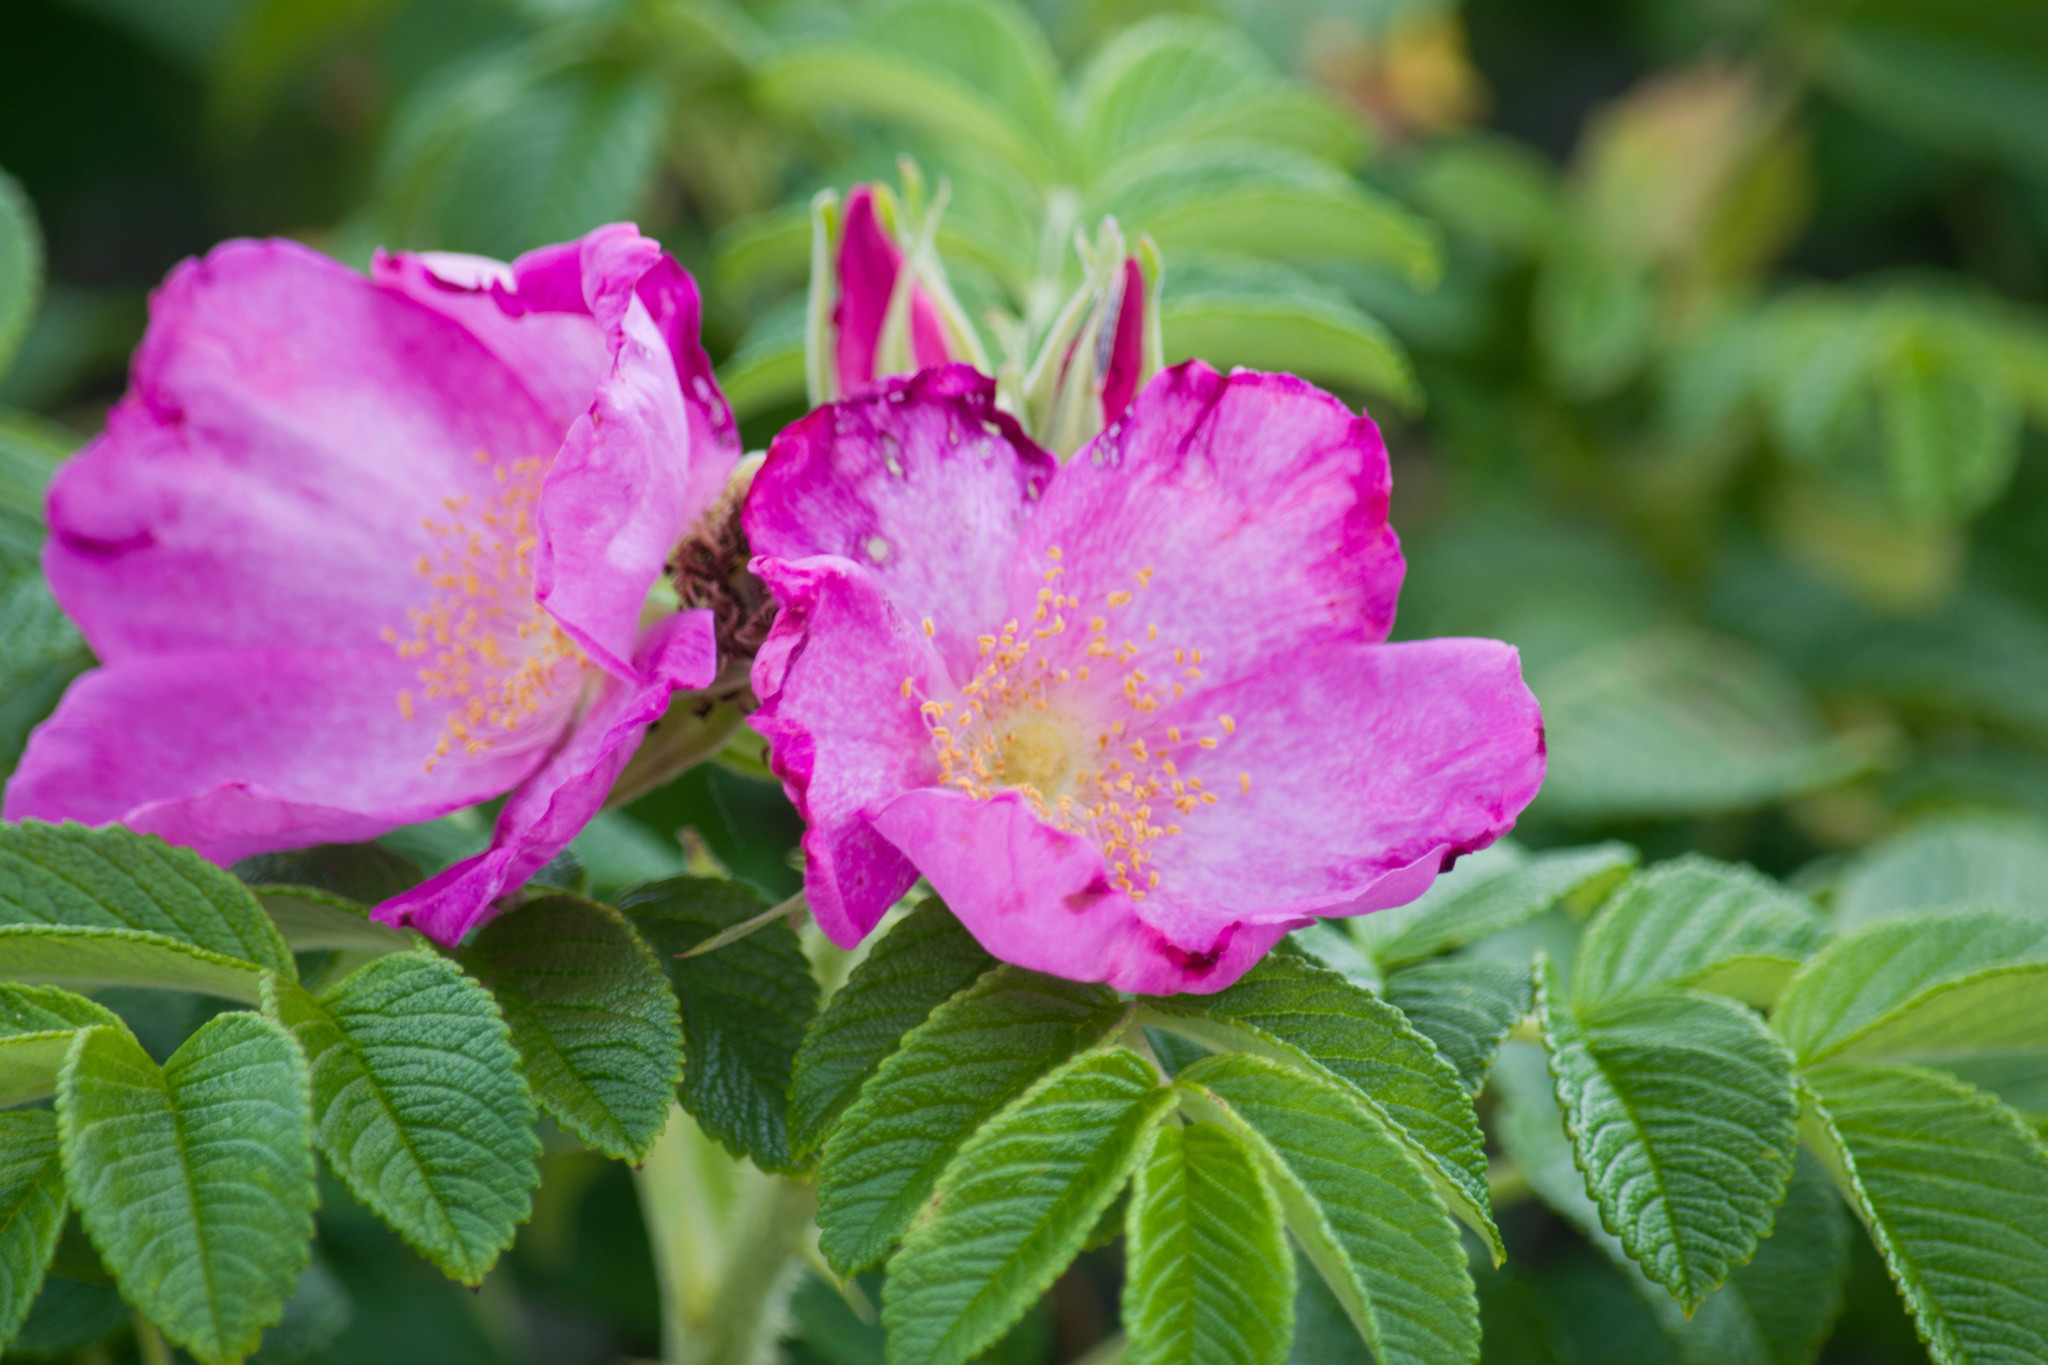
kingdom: Plantae
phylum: Tracheophyta
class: Magnoliopsida
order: Rosales
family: Rosaceae
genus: Rosa
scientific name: Rosa rugosa
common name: Japanese rose
